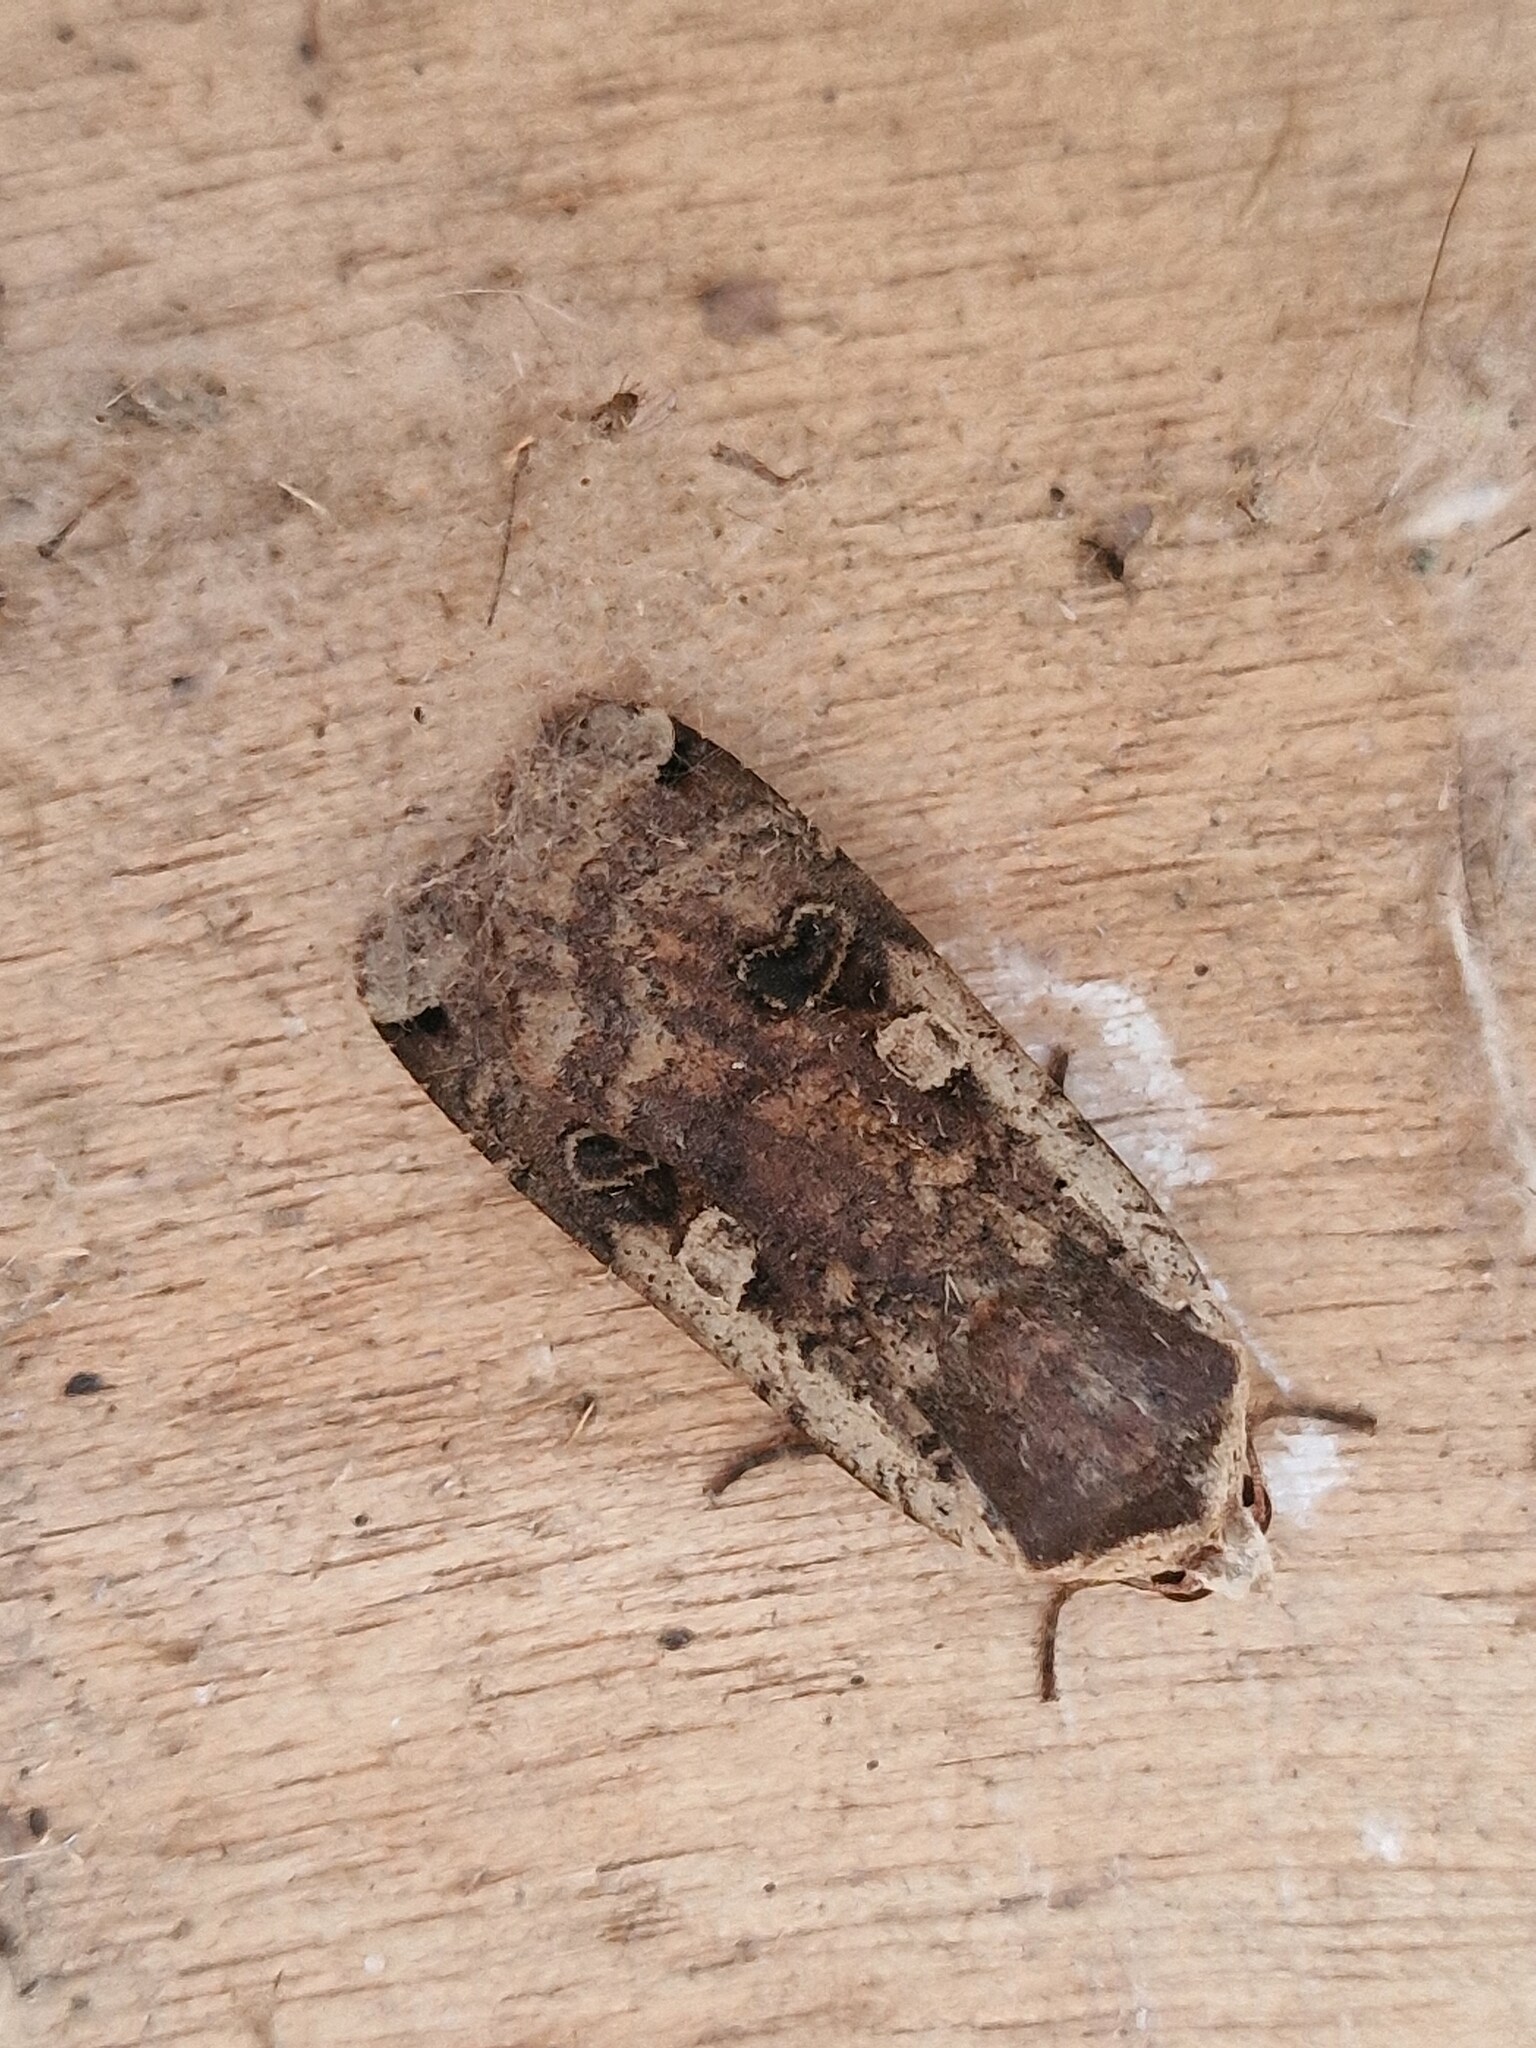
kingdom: Animalia
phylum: Arthropoda
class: Insecta
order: Lepidoptera
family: Noctuidae
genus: Noctua
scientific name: Noctua pronuba
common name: Large yellow underwing
